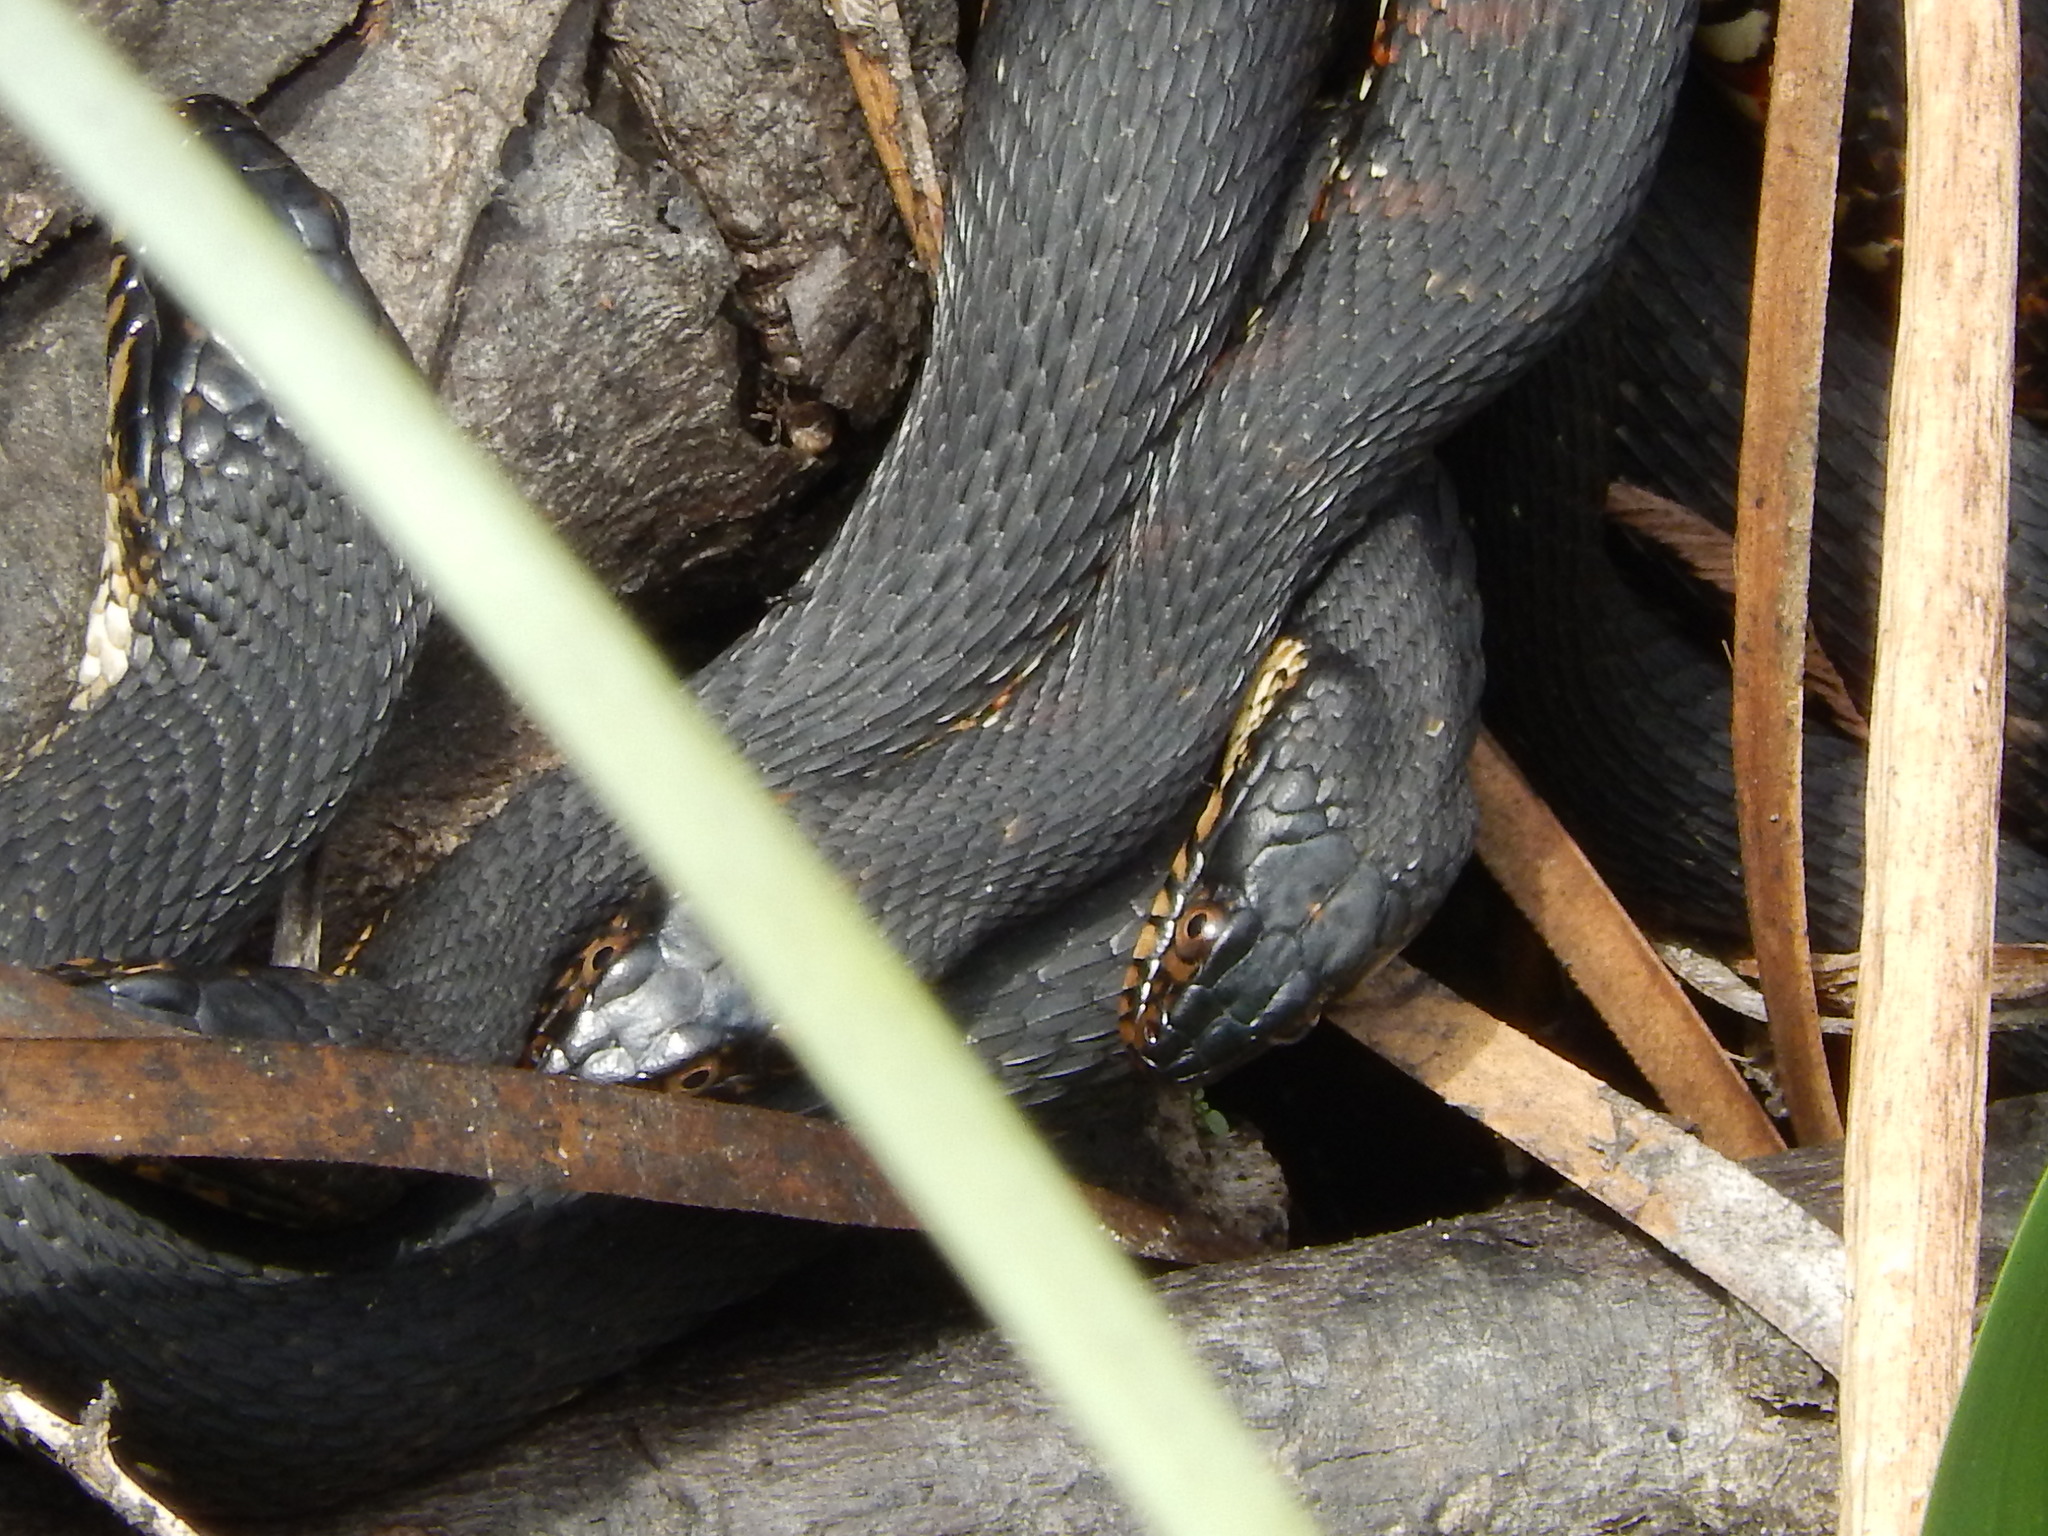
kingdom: Animalia
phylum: Chordata
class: Squamata
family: Colubridae
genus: Nerodia
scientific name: Nerodia fasciata
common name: Southern water snake
